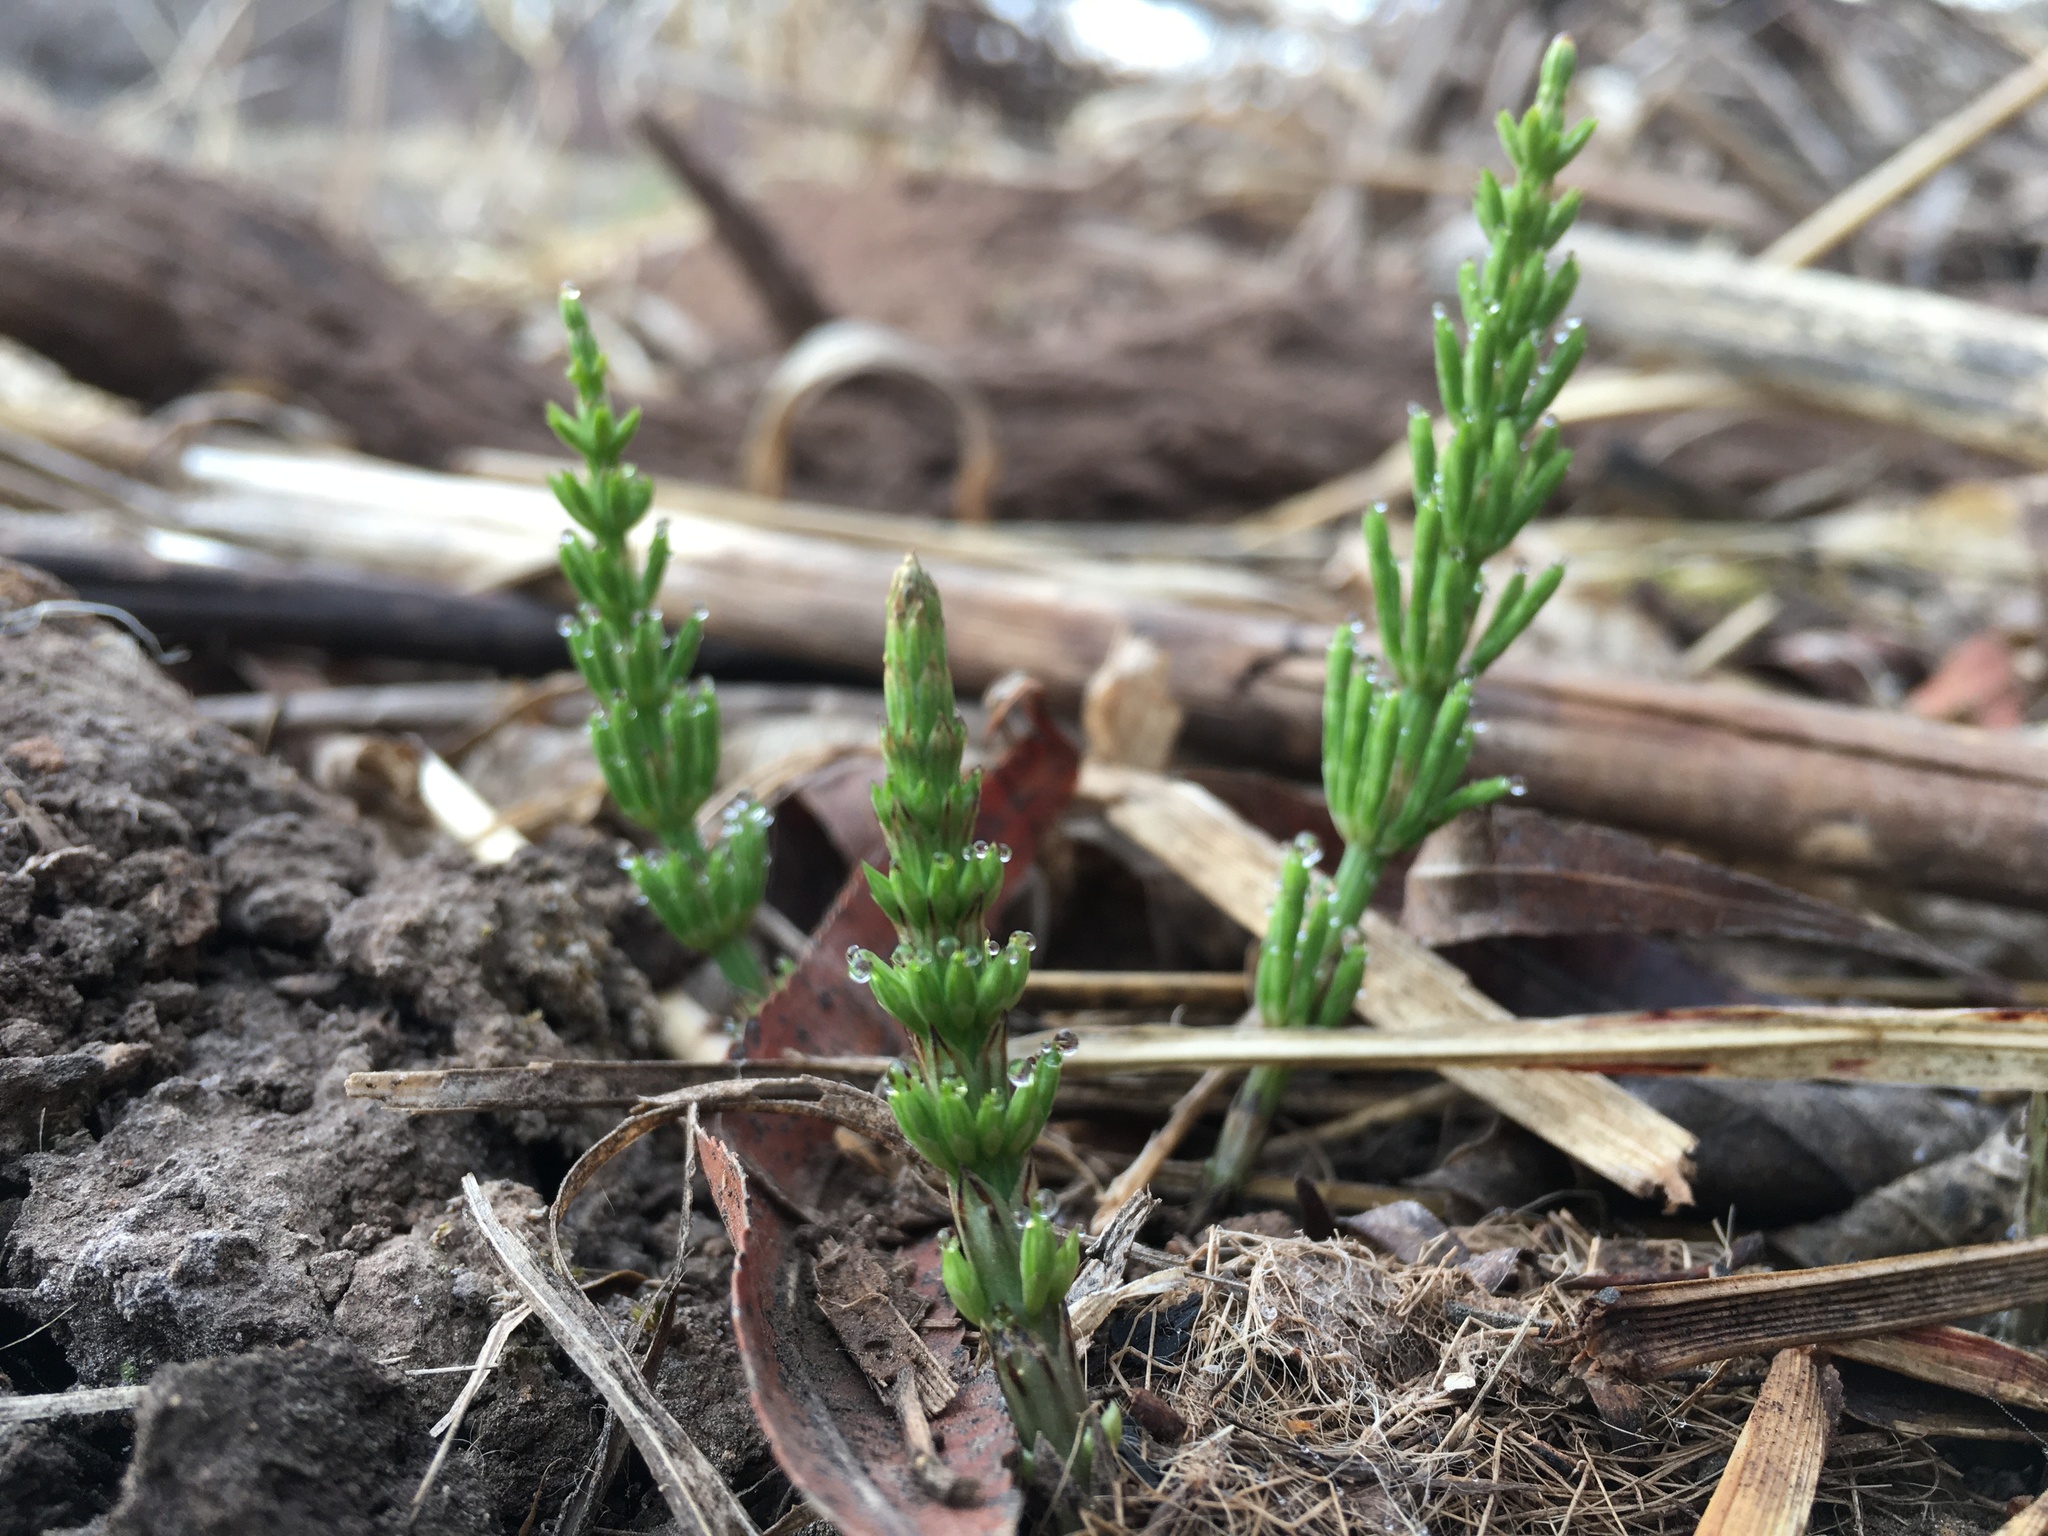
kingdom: Plantae
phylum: Tracheophyta
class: Polypodiopsida
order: Equisetales
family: Equisetaceae
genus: Equisetum
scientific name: Equisetum arvense
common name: Field horsetail
